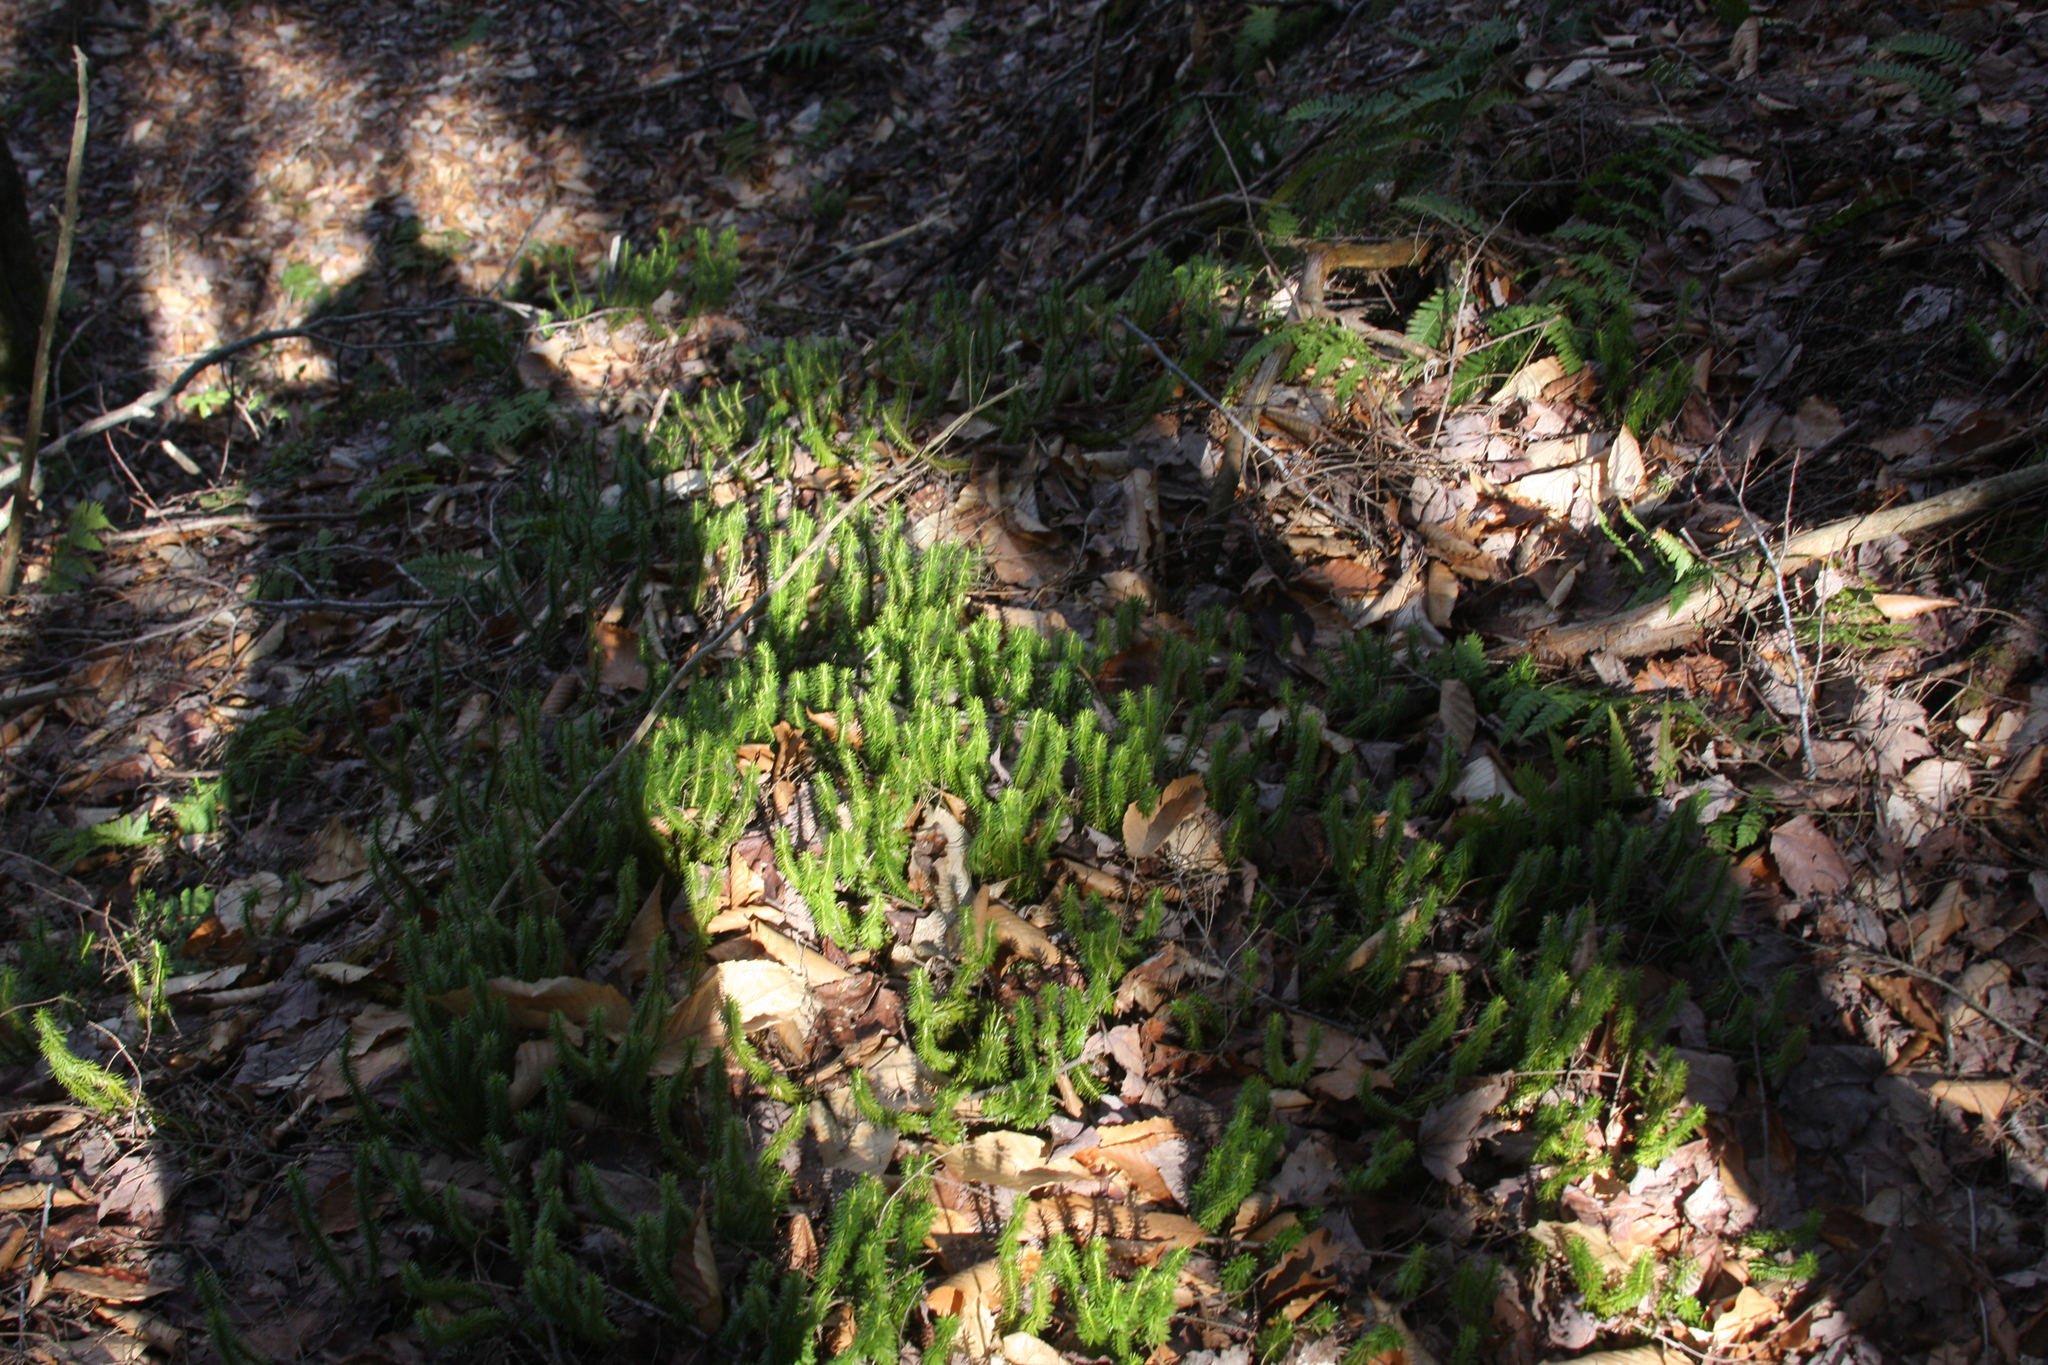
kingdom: Plantae
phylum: Tracheophyta
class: Lycopodiopsida
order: Lycopodiales
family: Lycopodiaceae
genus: Spinulum
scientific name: Spinulum annotinum
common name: Interrupted club-moss
